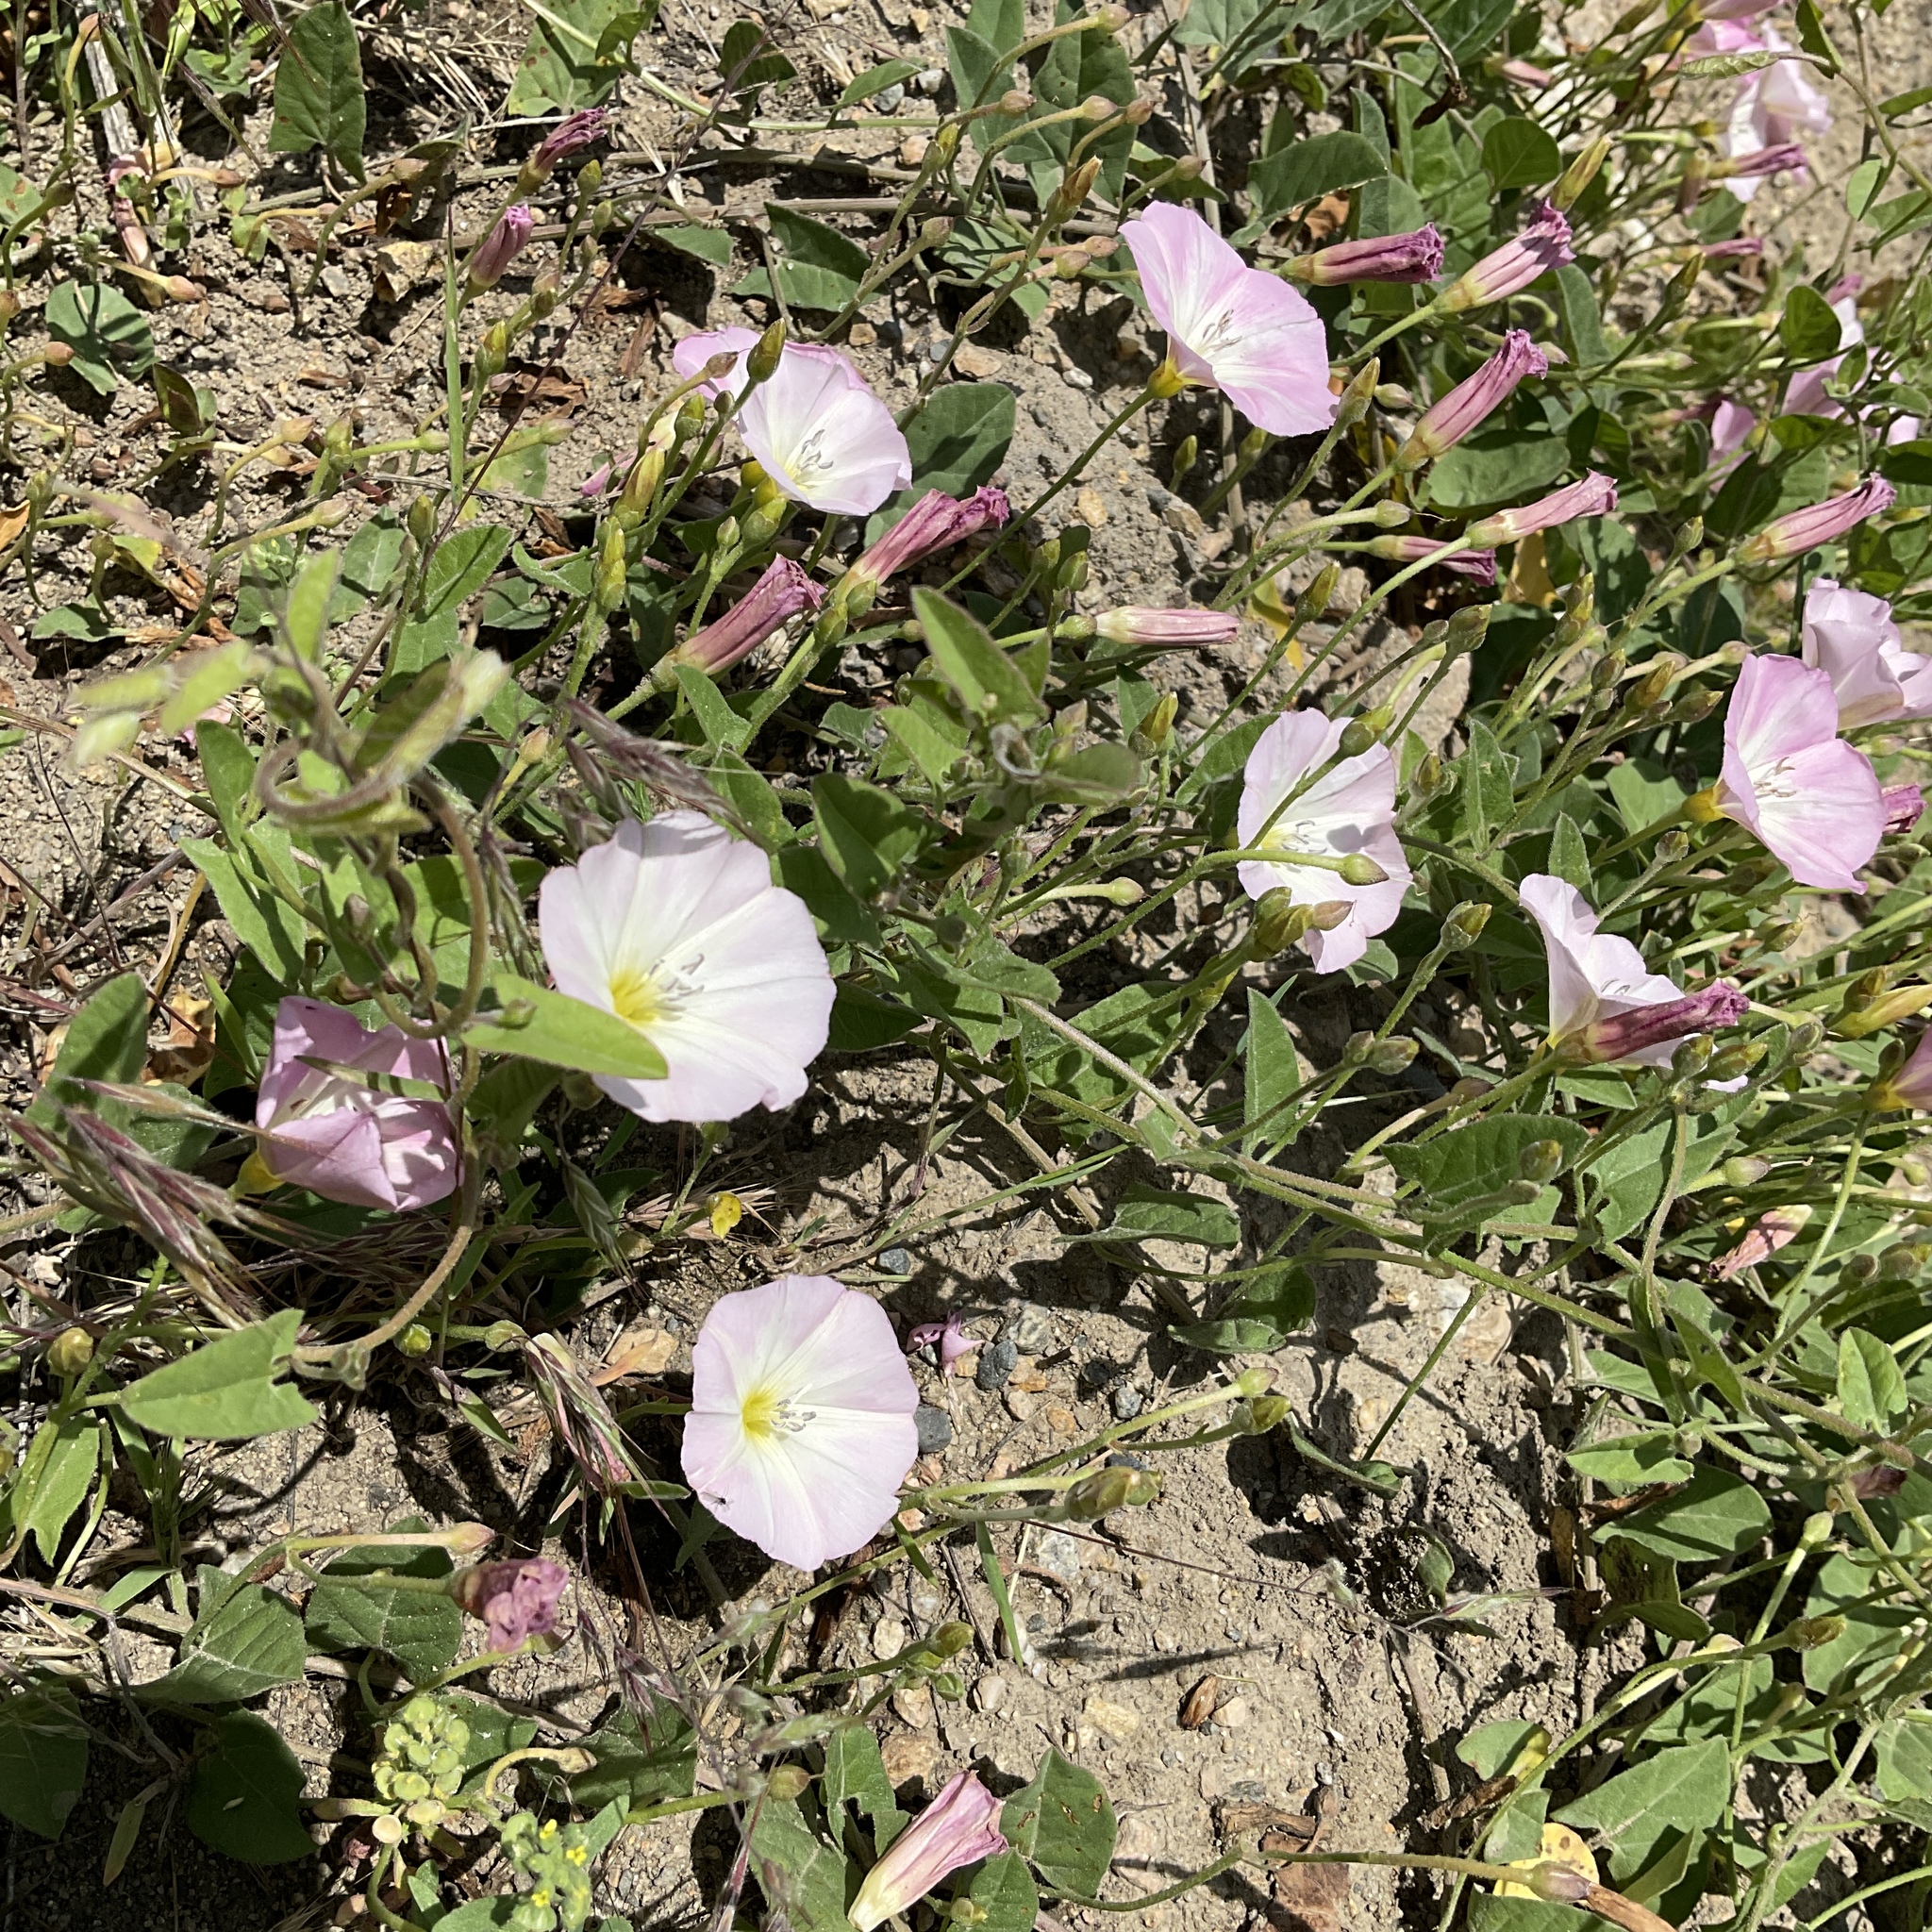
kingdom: Plantae
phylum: Tracheophyta
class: Magnoliopsida
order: Solanales
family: Convolvulaceae
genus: Convolvulus
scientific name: Convolvulus arvensis
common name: Field bindweed
